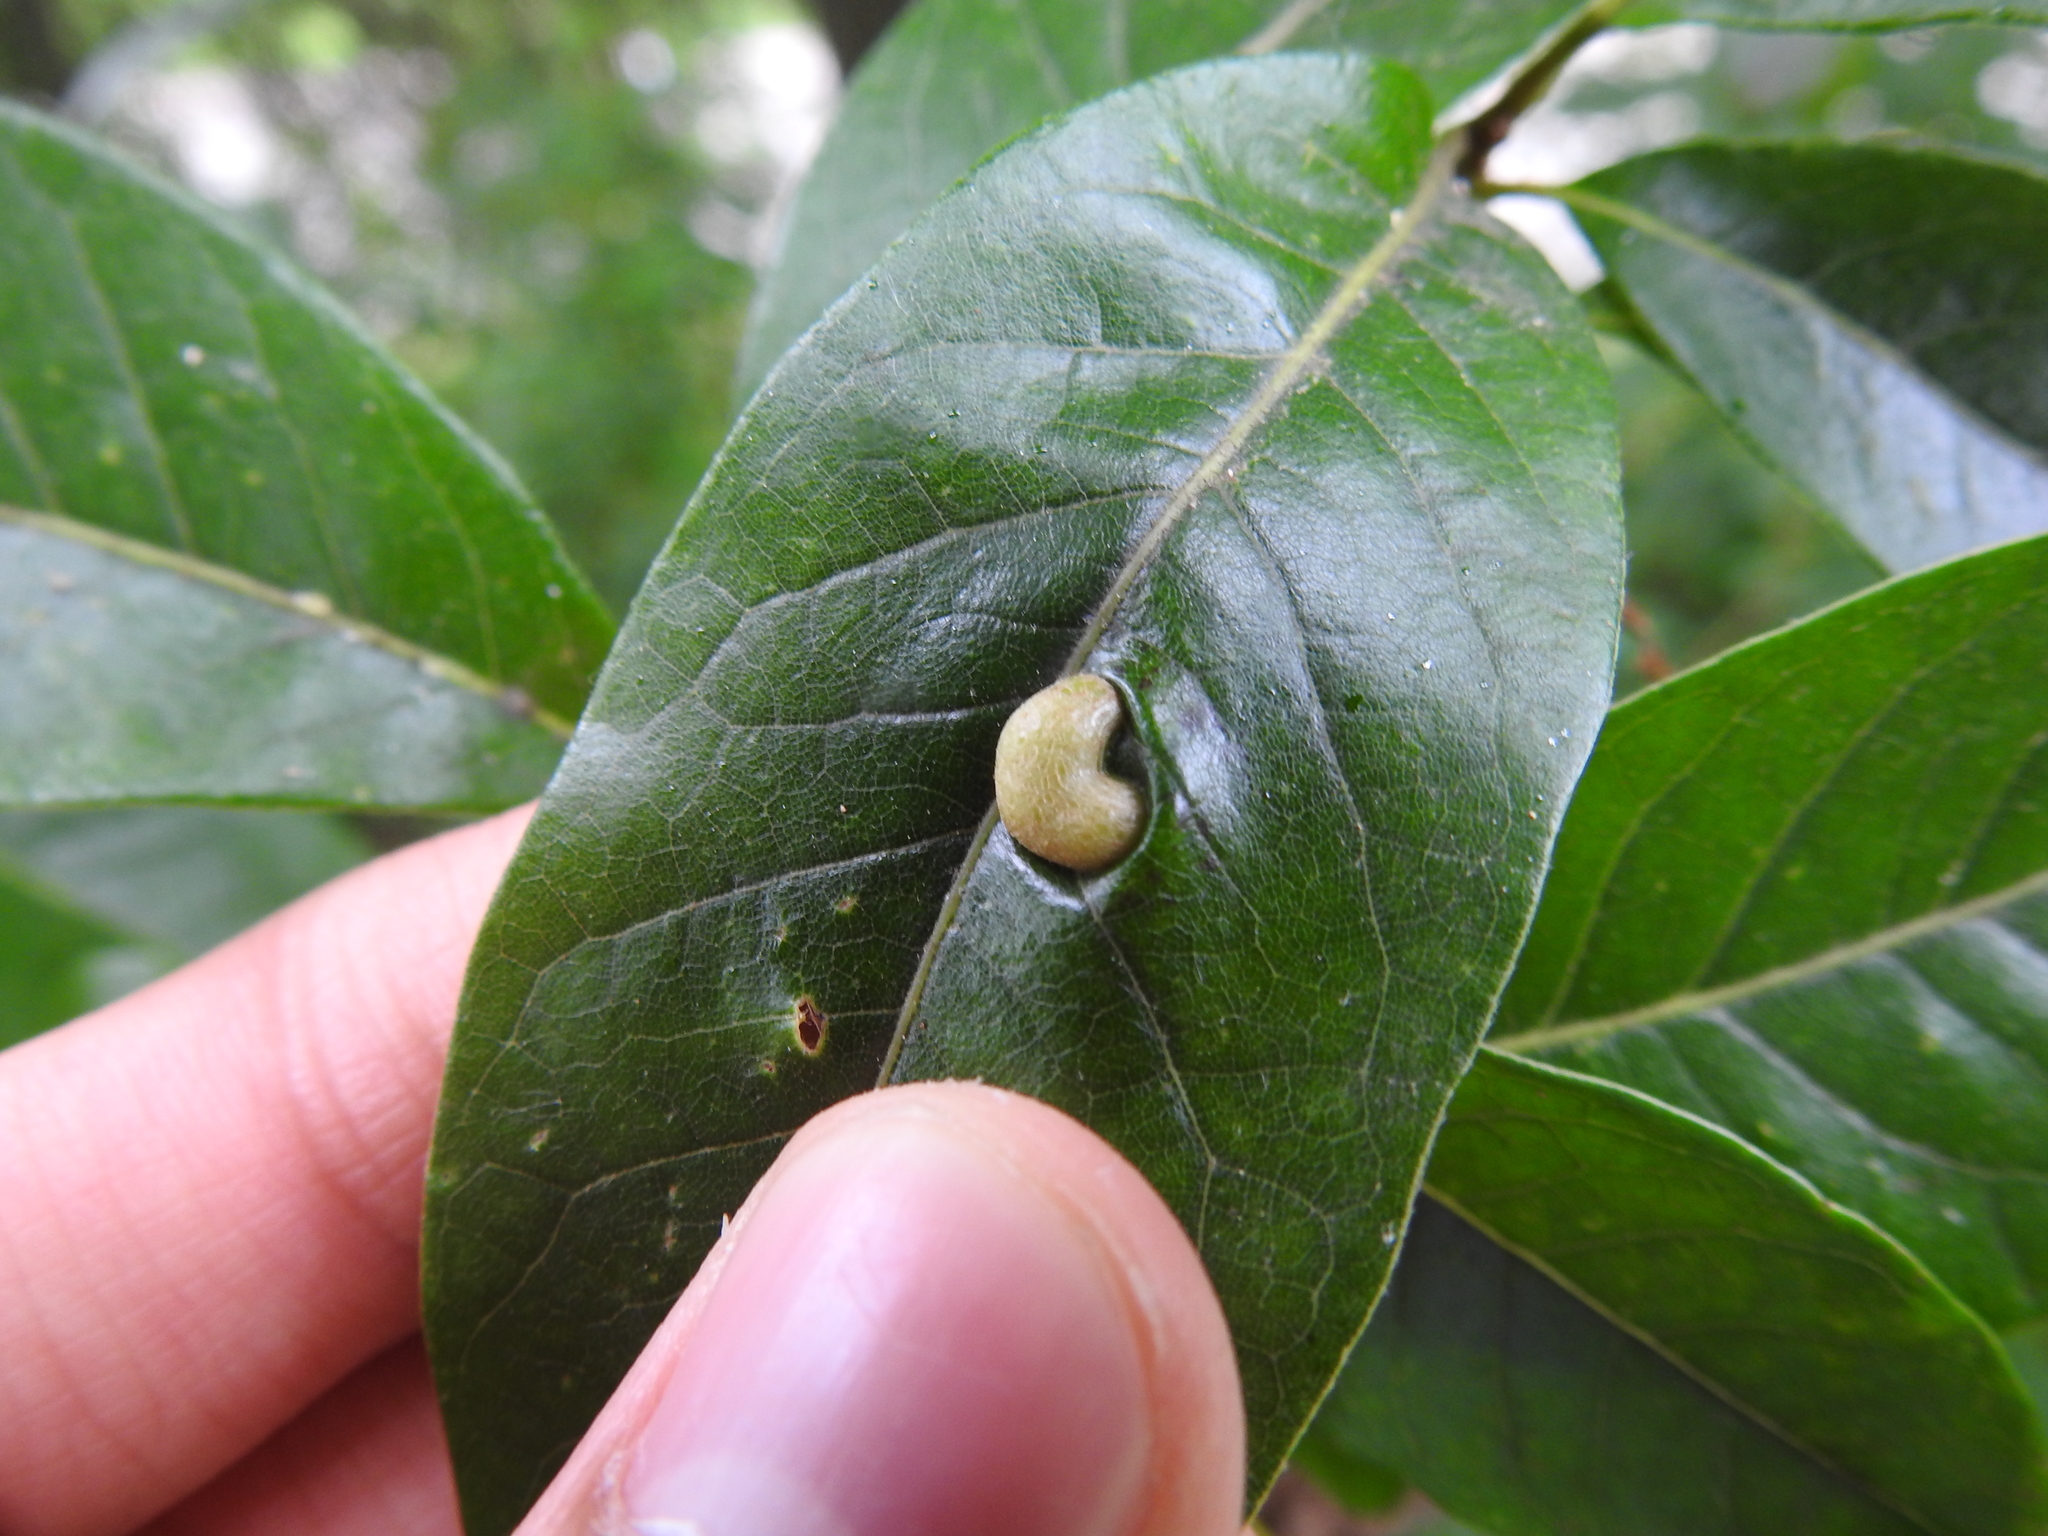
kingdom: Animalia
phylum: Arthropoda
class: Insecta
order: Diptera
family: Cecidomyiidae
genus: Polystepha
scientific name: Polystepha pilulae
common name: Oak leaf gall midge
